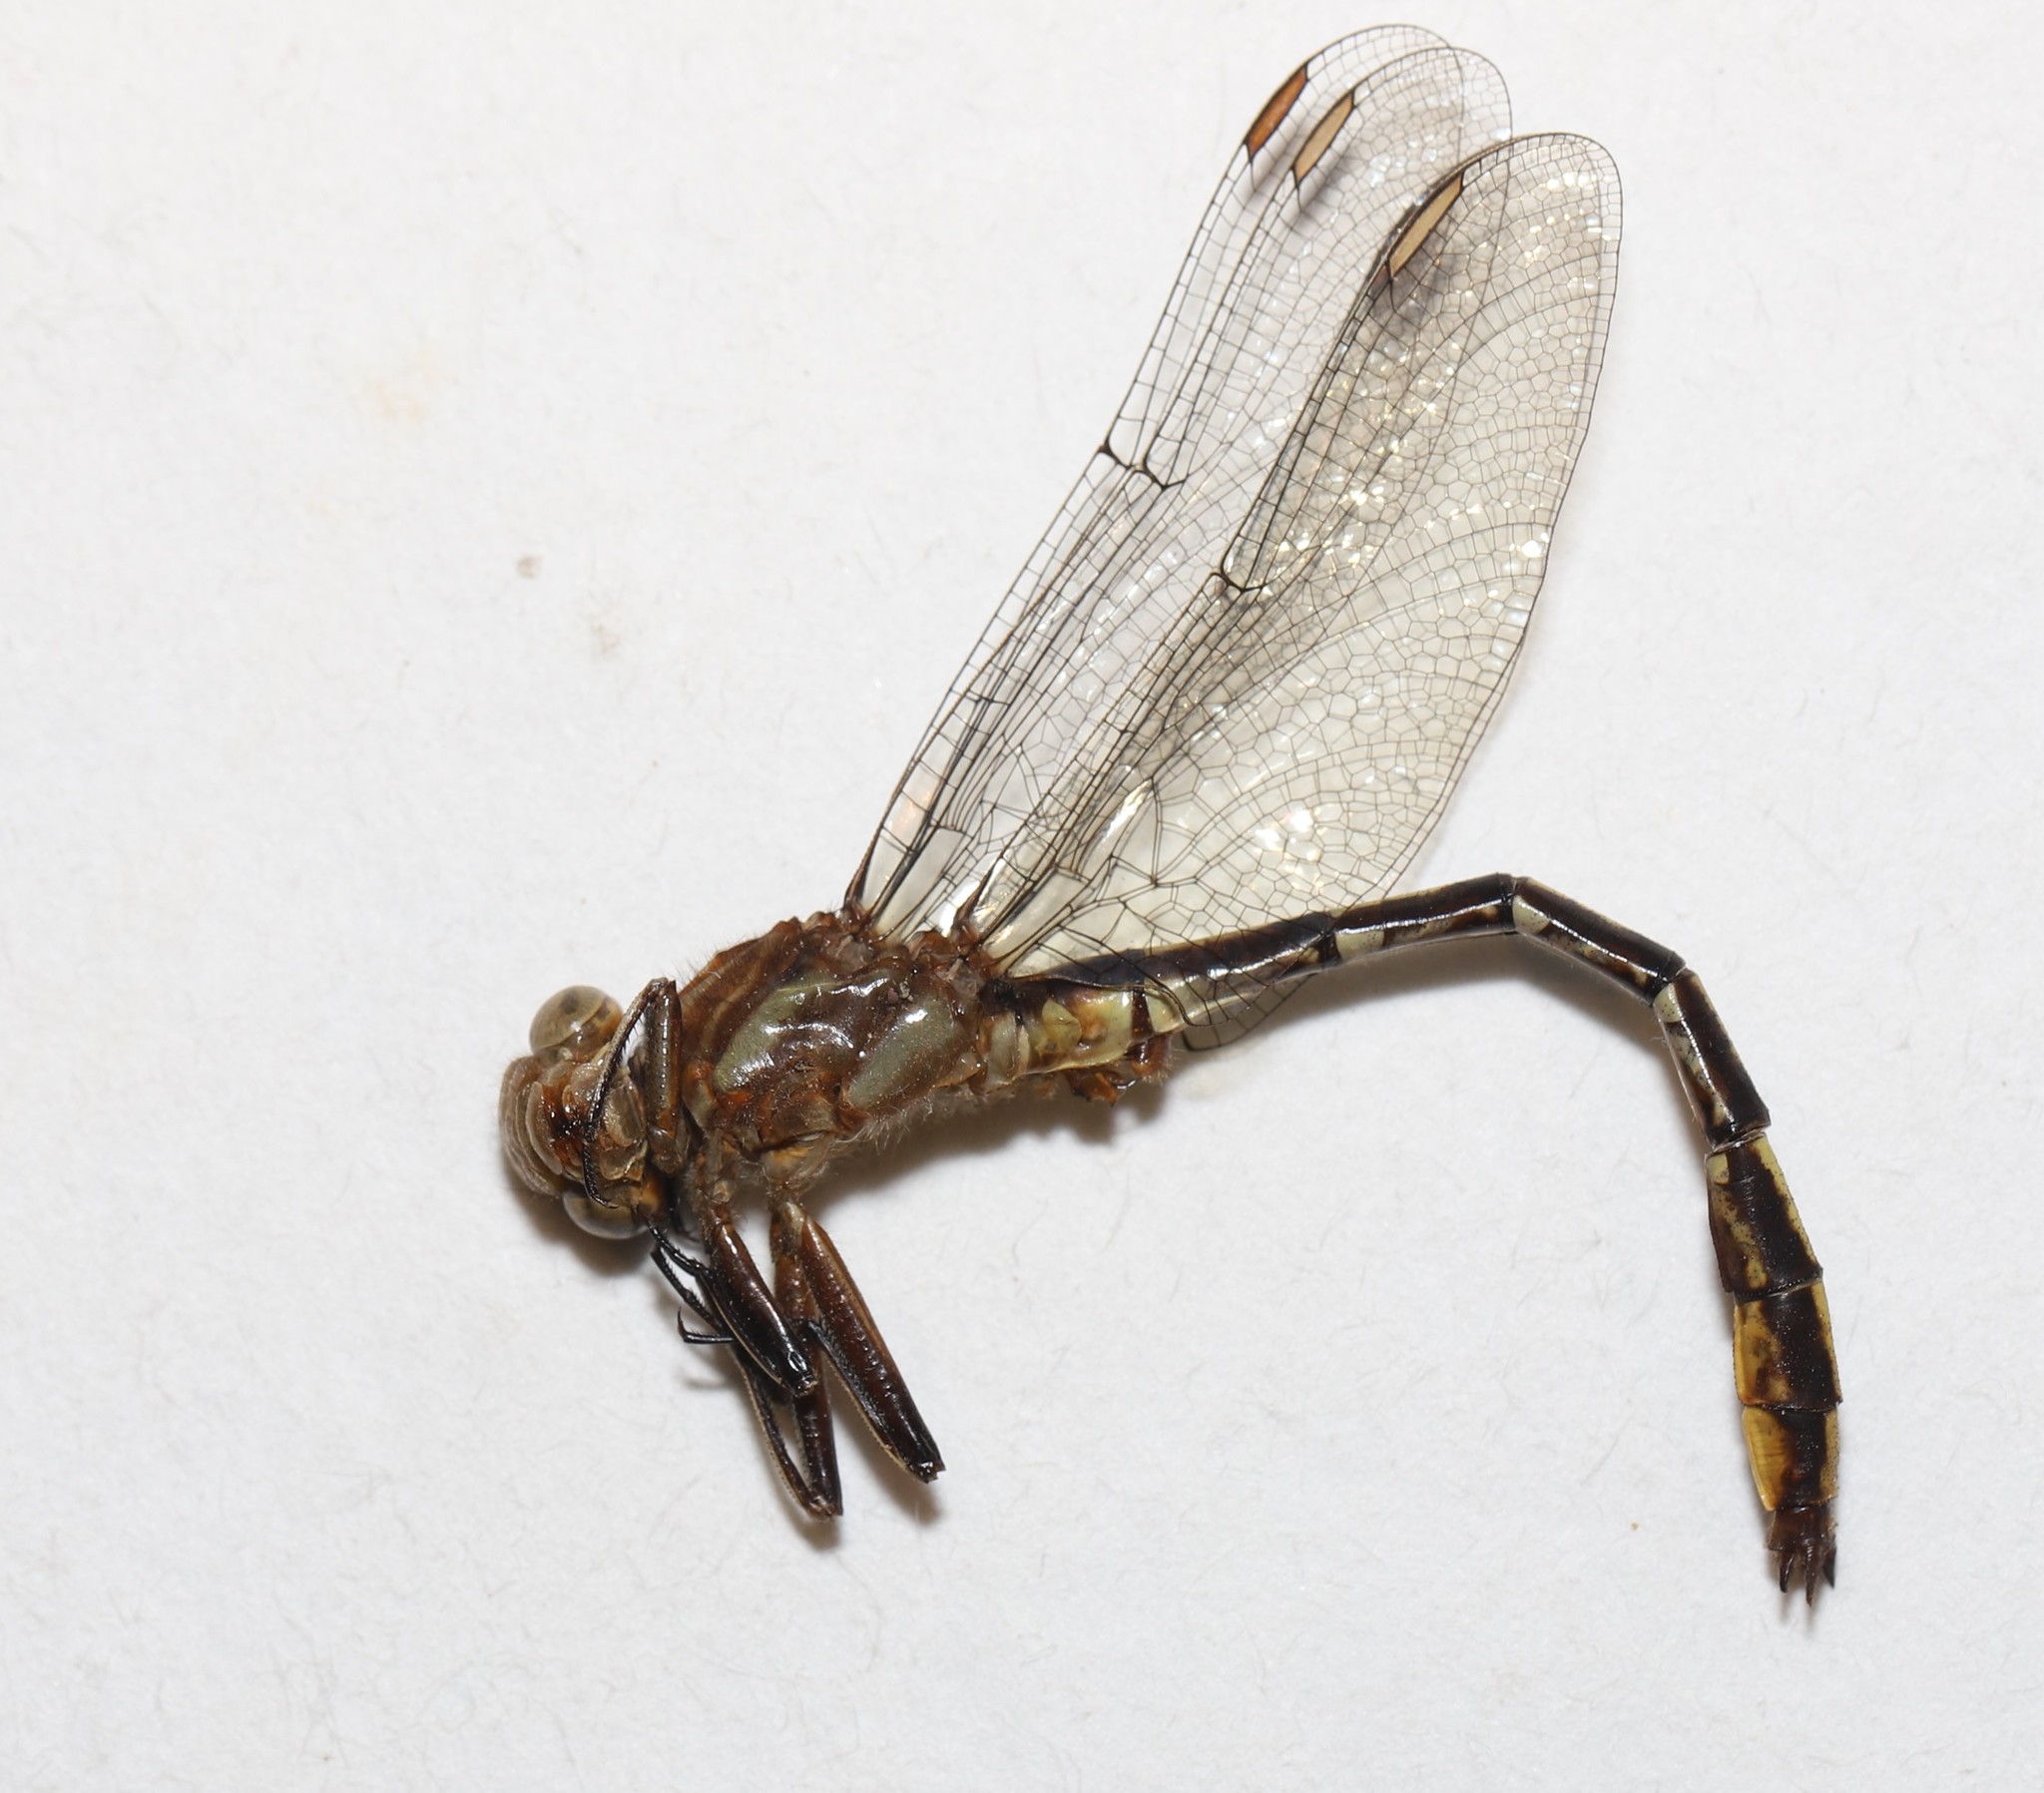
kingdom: Animalia
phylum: Arthropoda
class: Insecta
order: Odonata
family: Gomphidae
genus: Phanogomphus
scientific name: Phanogomphus exilis
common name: Lancet clubtail
